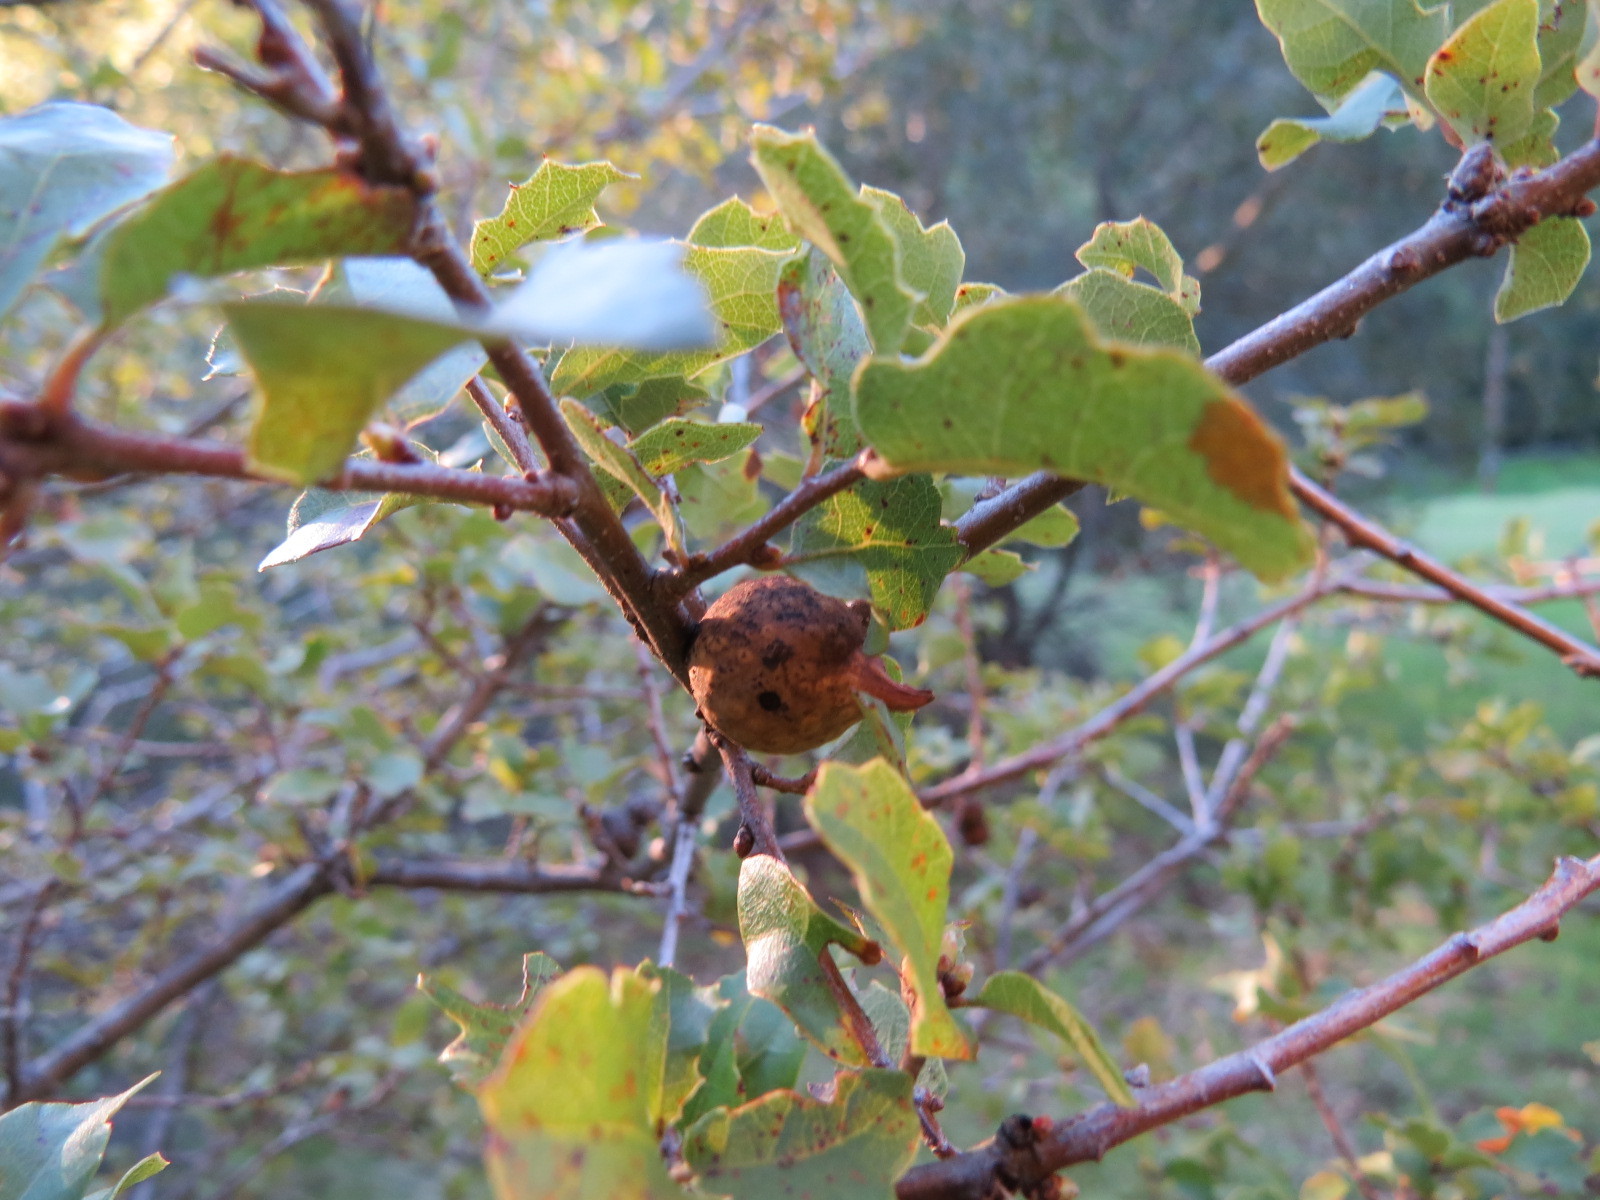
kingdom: Animalia
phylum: Arthropoda
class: Insecta
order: Hymenoptera
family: Cynipidae
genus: Burnettweldia
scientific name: Burnettweldia
